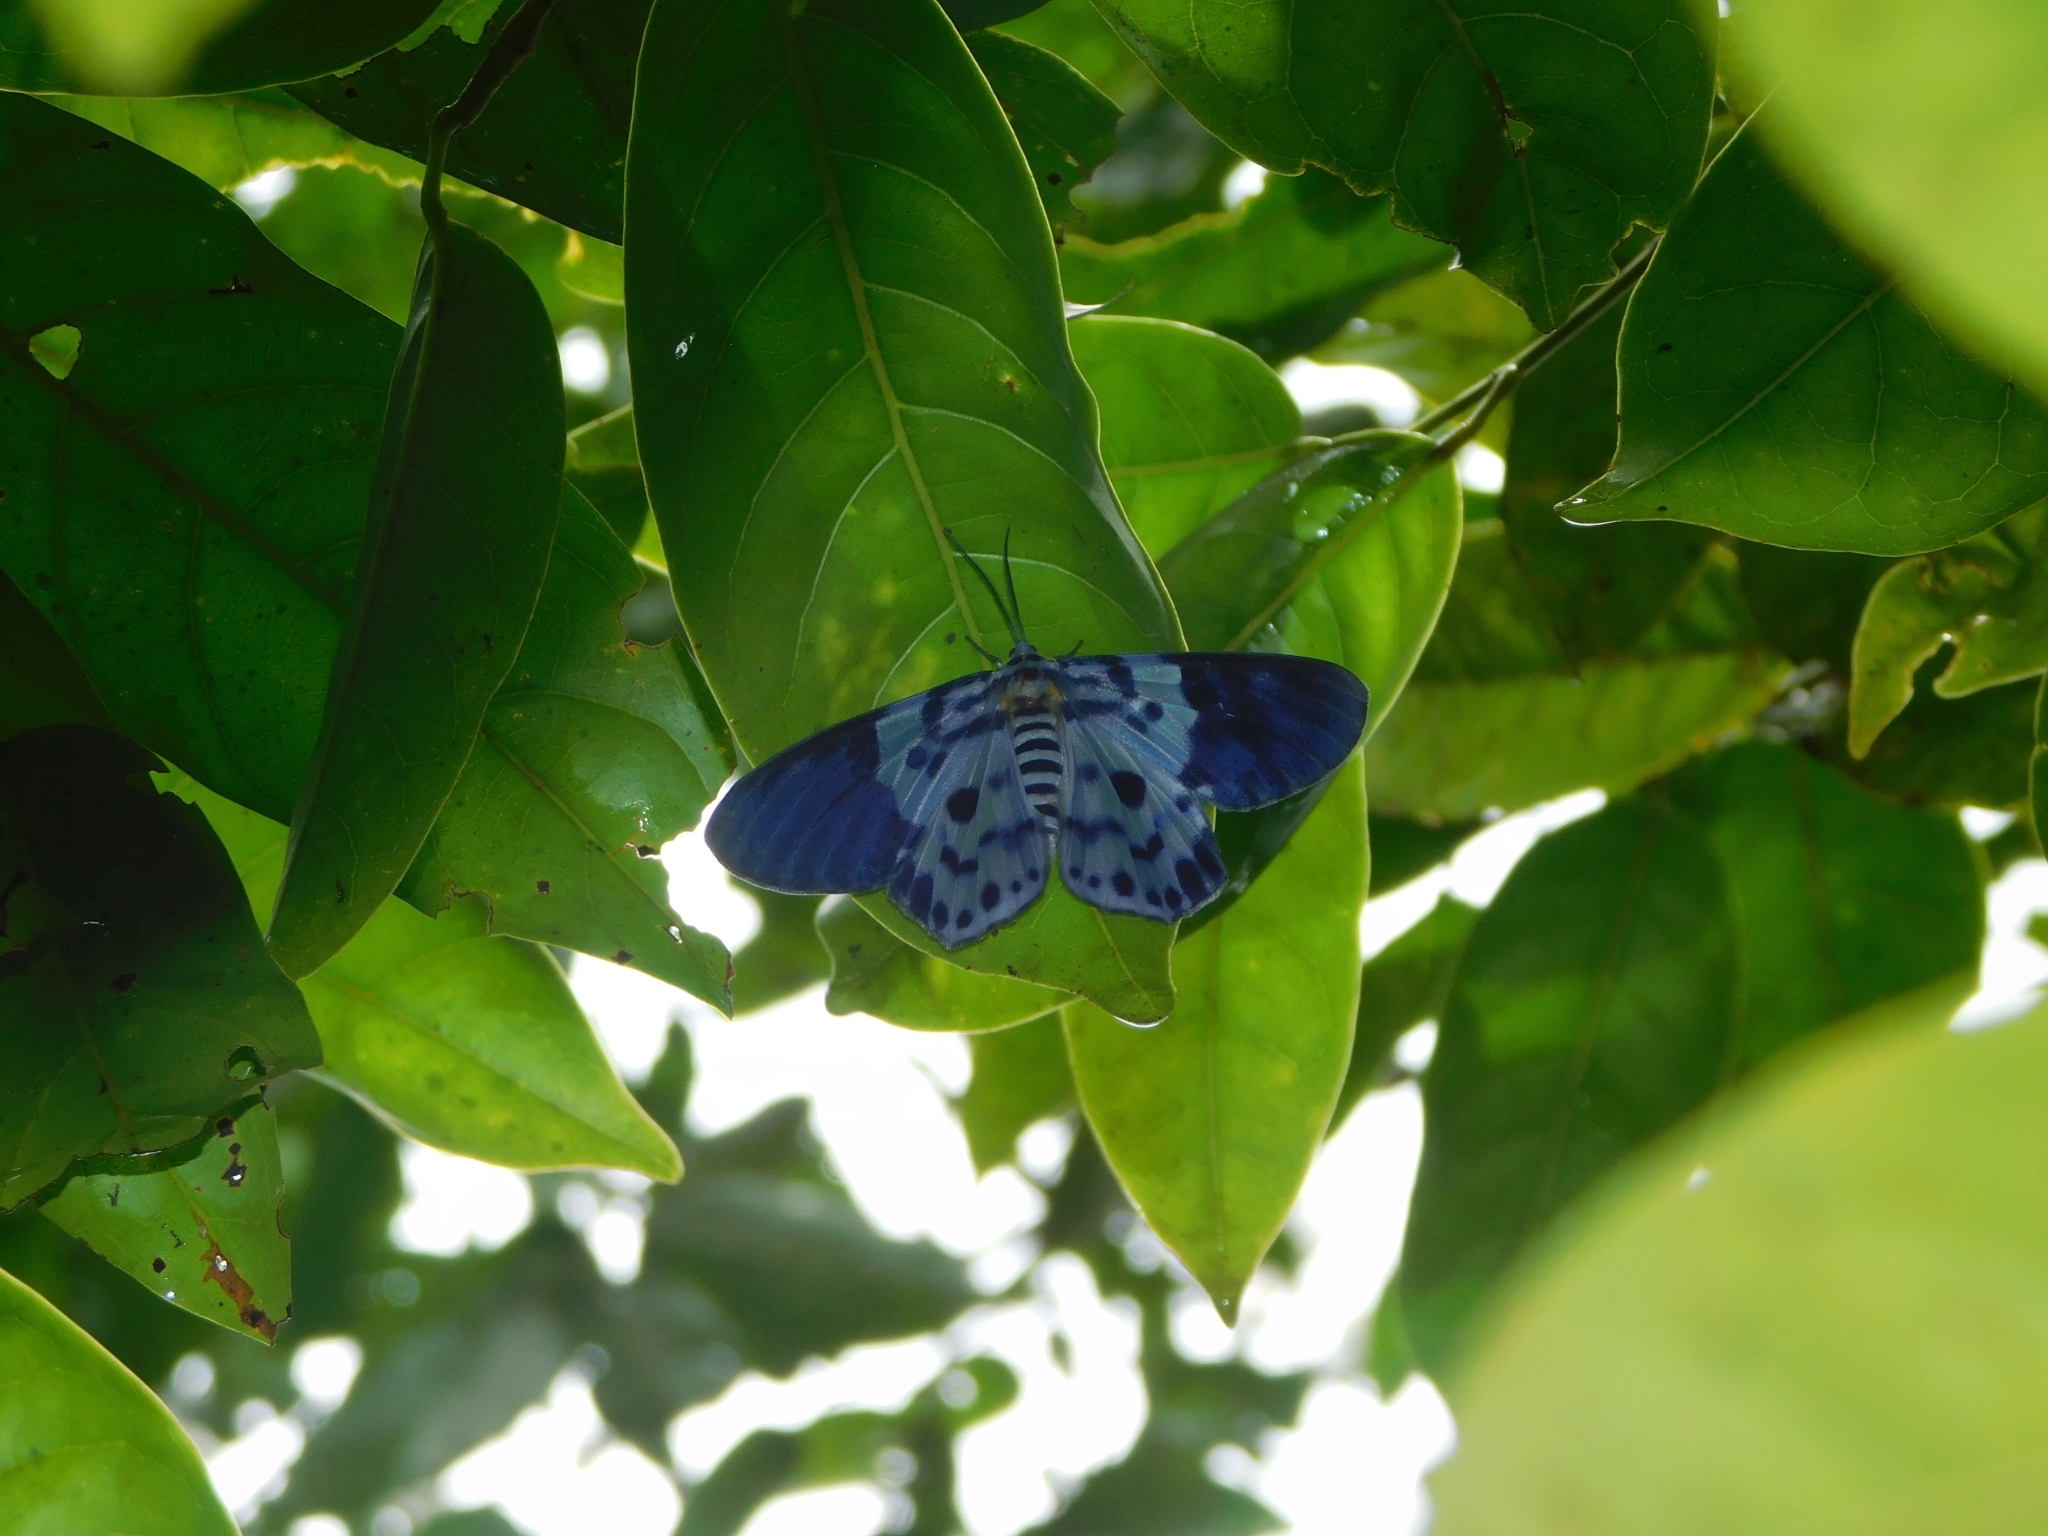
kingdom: Animalia
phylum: Arthropoda
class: Insecta
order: Lepidoptera
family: Geometridae
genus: Dysphania
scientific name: Dysphania percota
